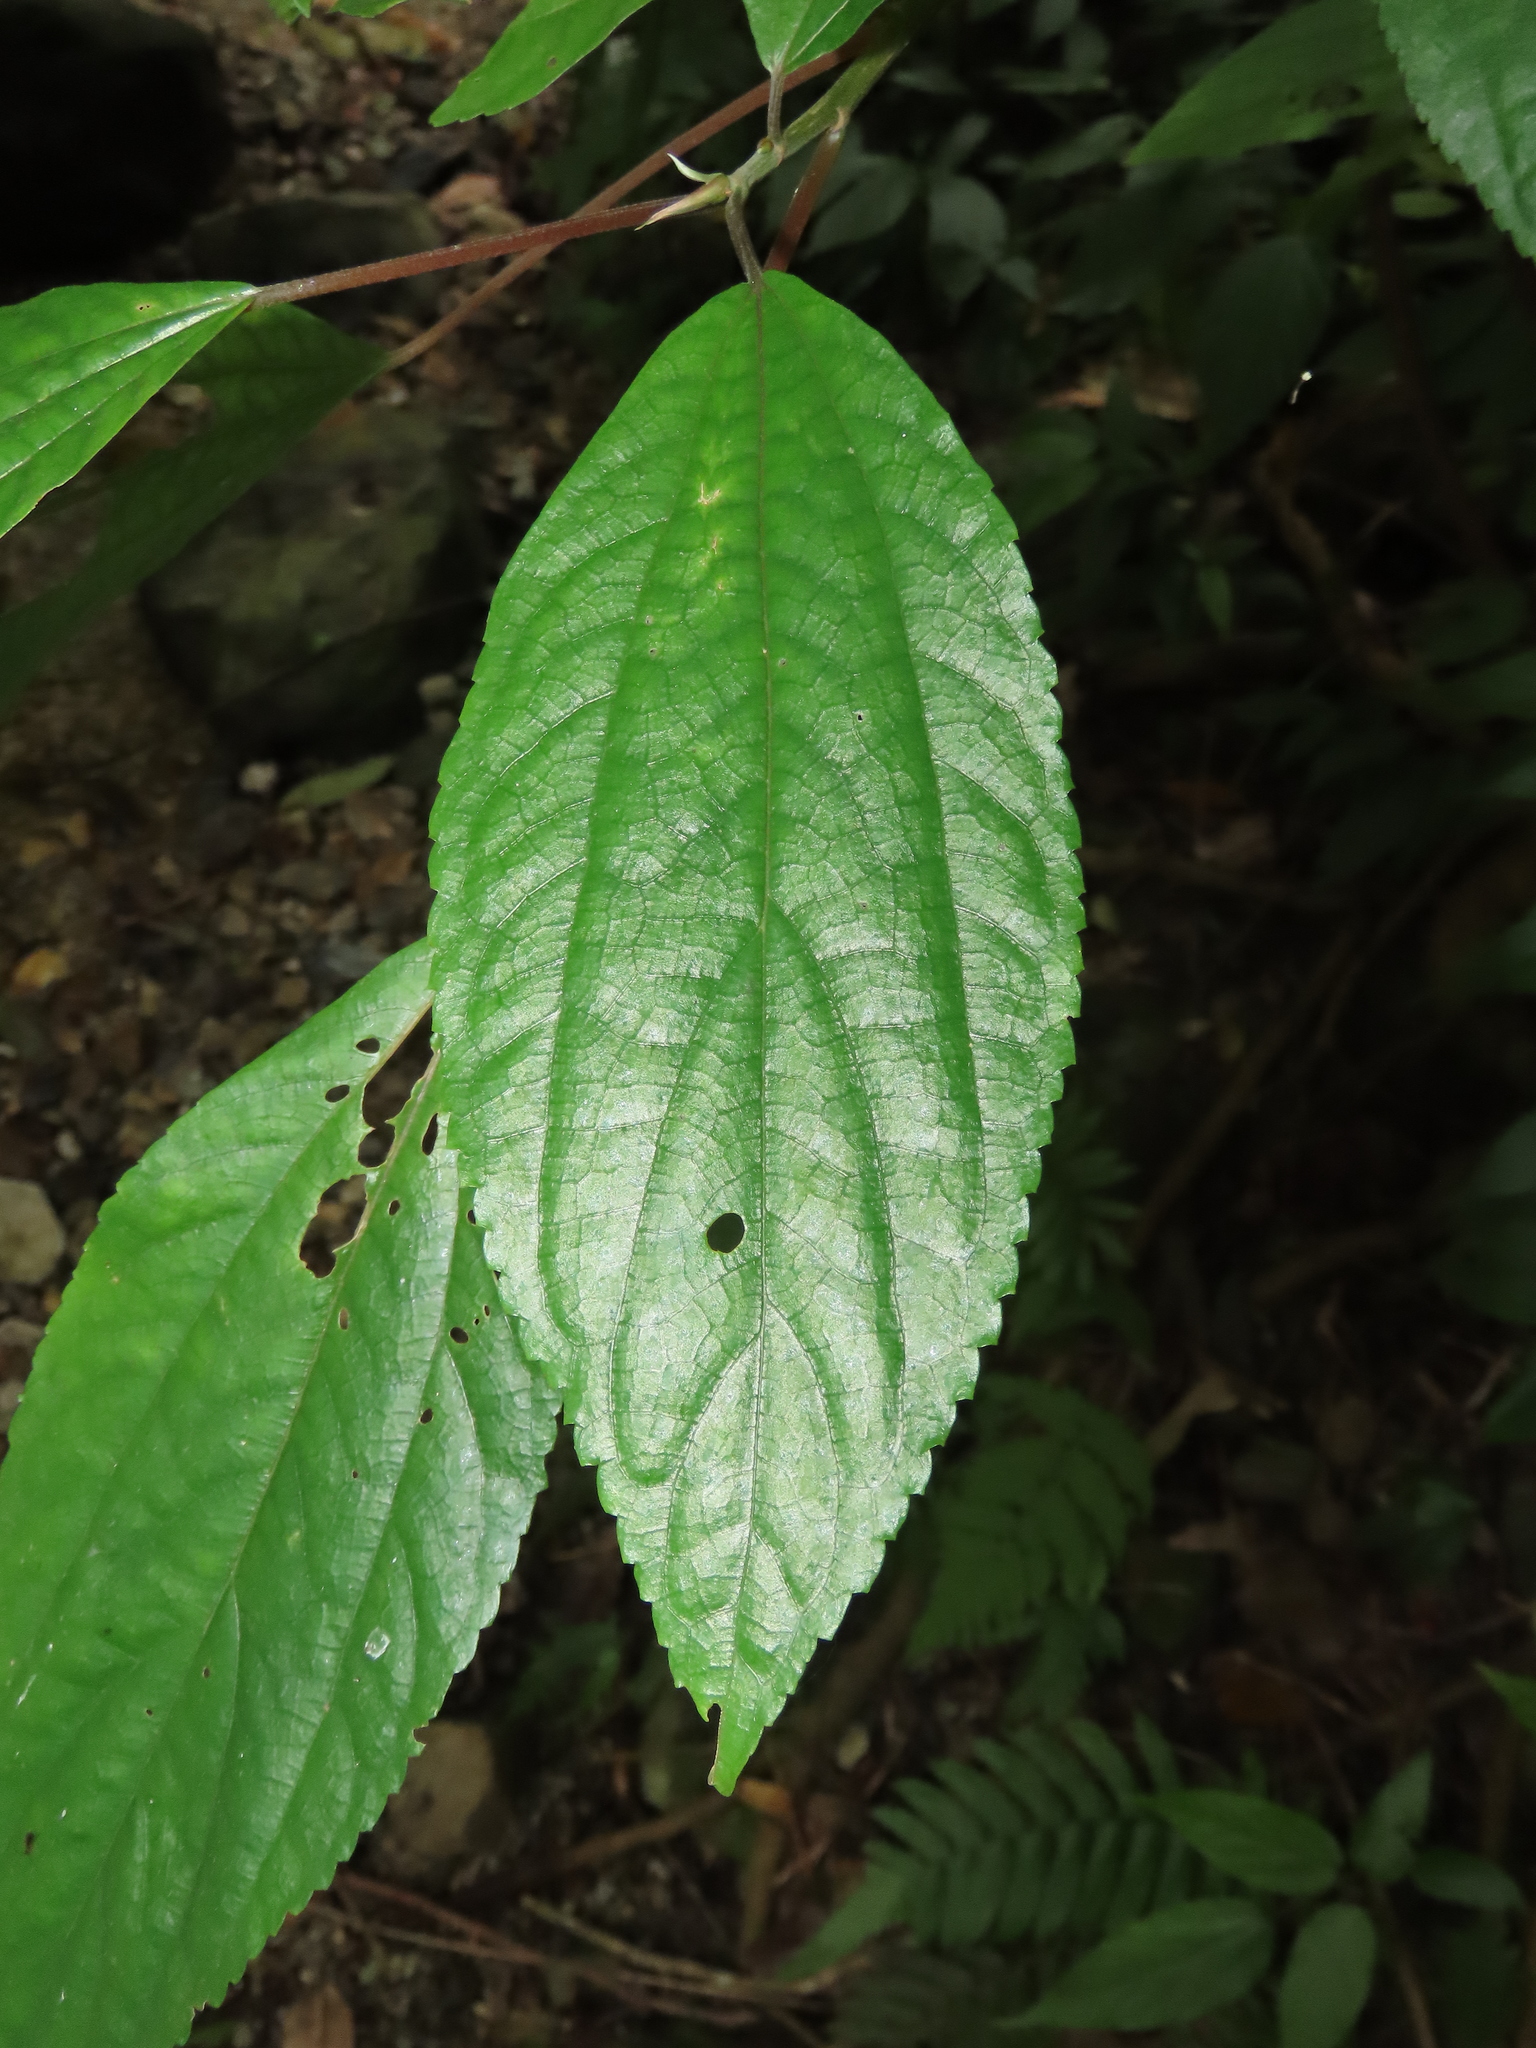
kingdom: Plantae
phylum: Tracheophyta
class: Magnoliopsida
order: Rosales
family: Urticaceae
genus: Oreocnide
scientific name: Oreocnide pedunculata
